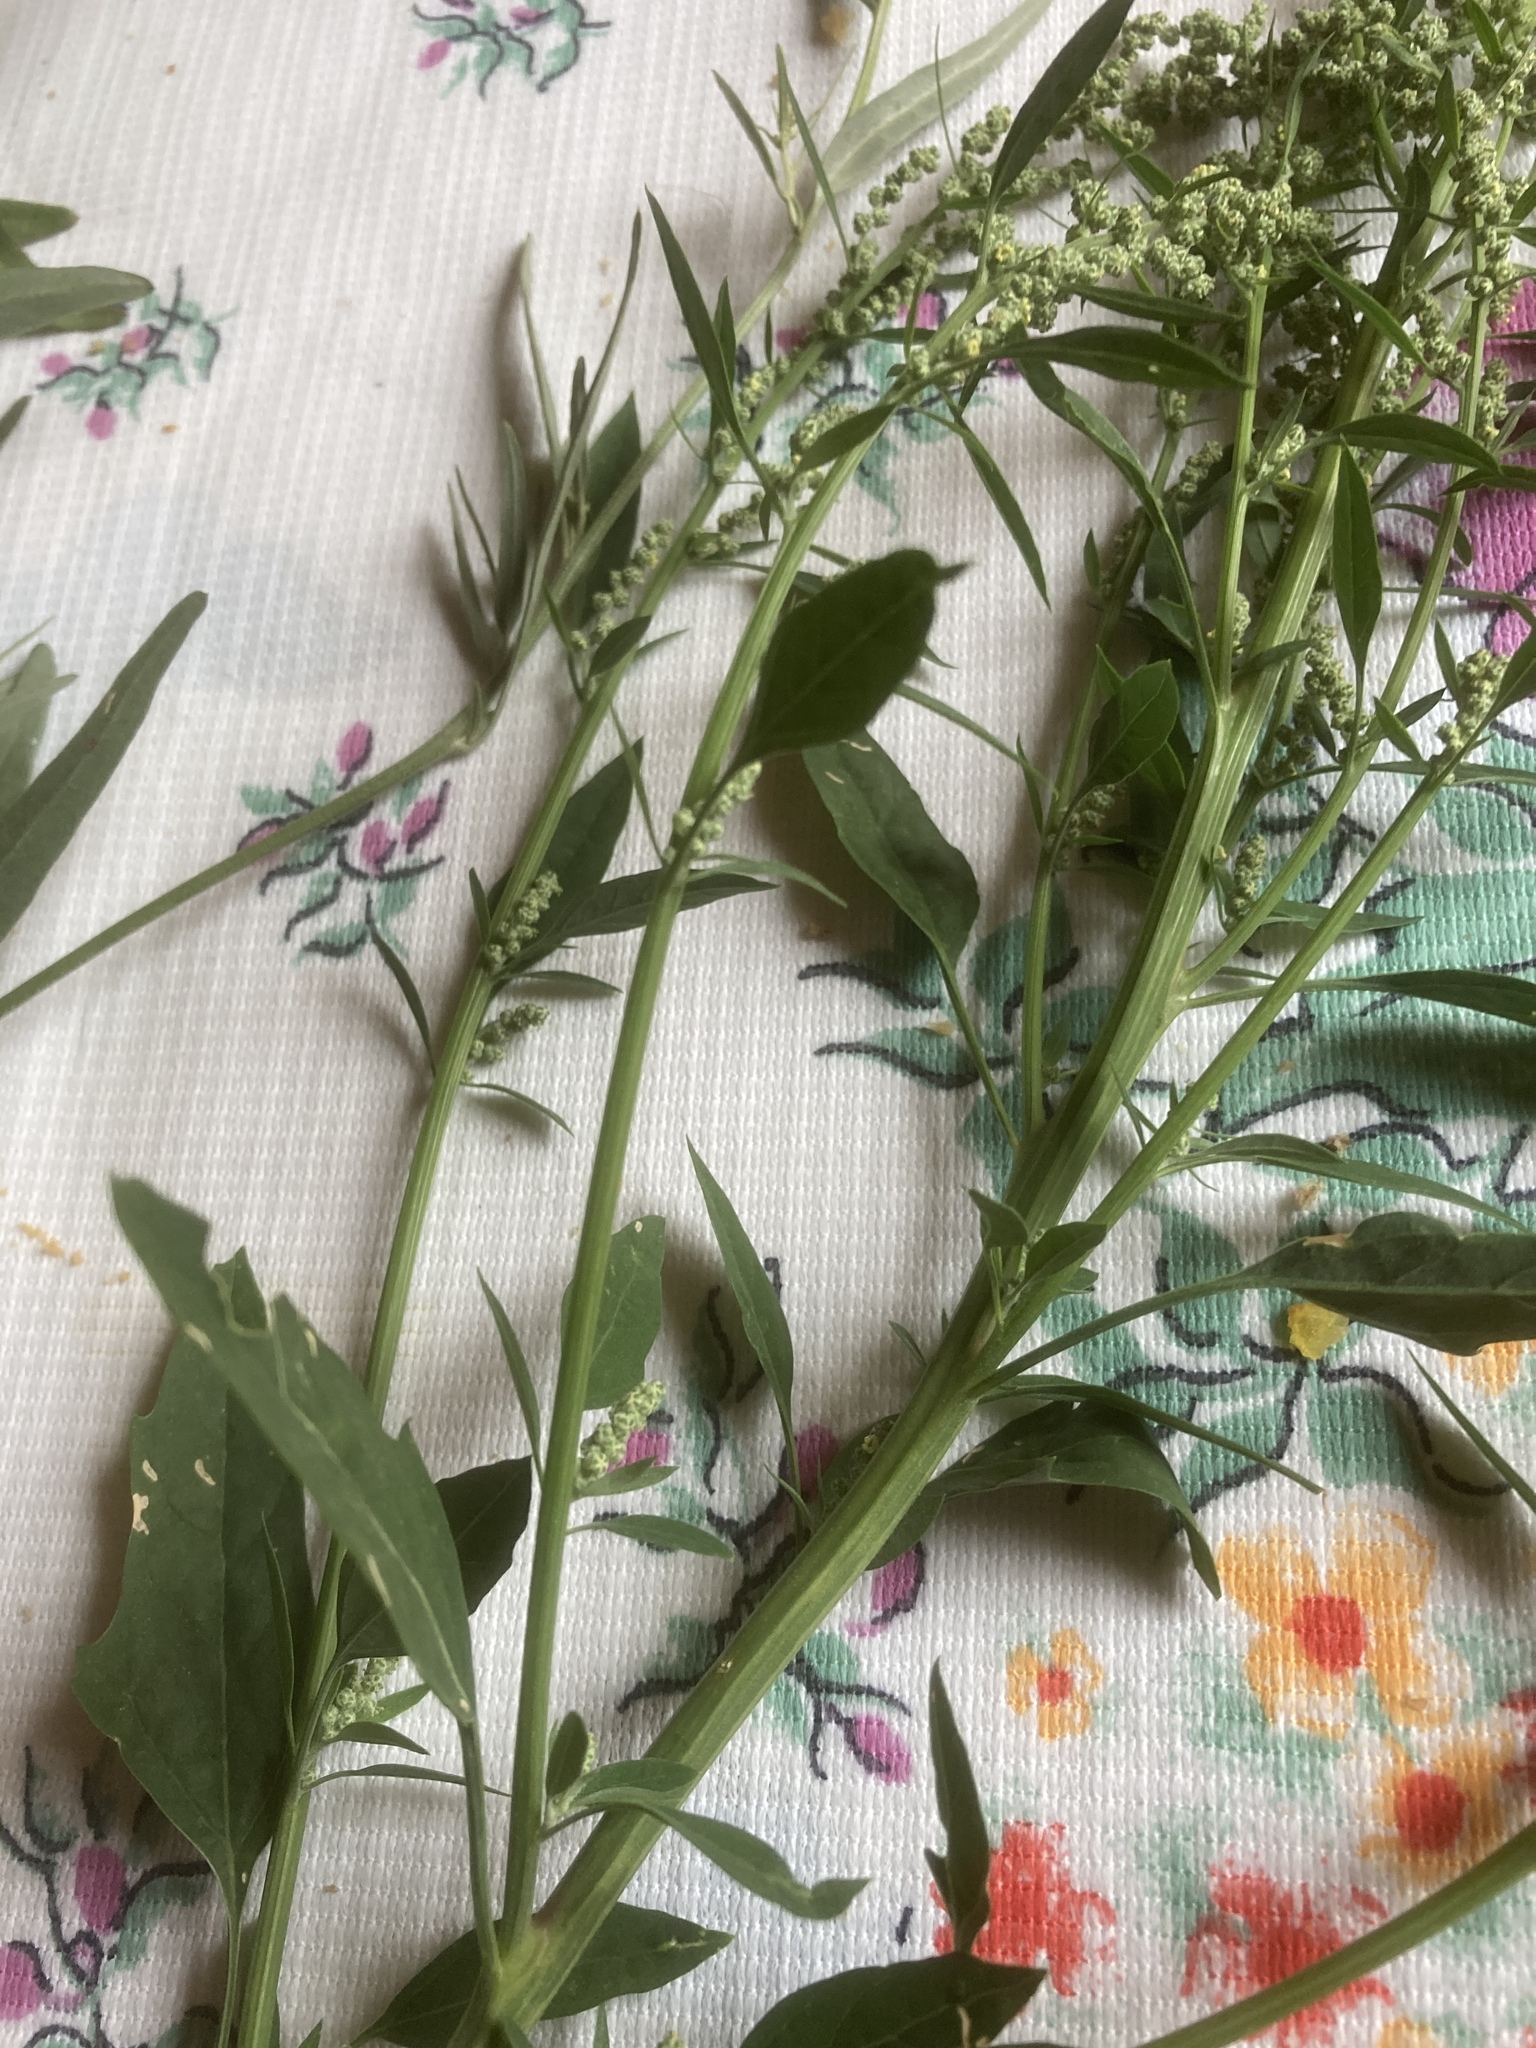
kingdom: Plantae
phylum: Tracheophyta
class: Magnoliopsida
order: Caryophyllales
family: Amaranthaceae
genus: Chenopodium
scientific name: Chenopodium album
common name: Fat-hen
